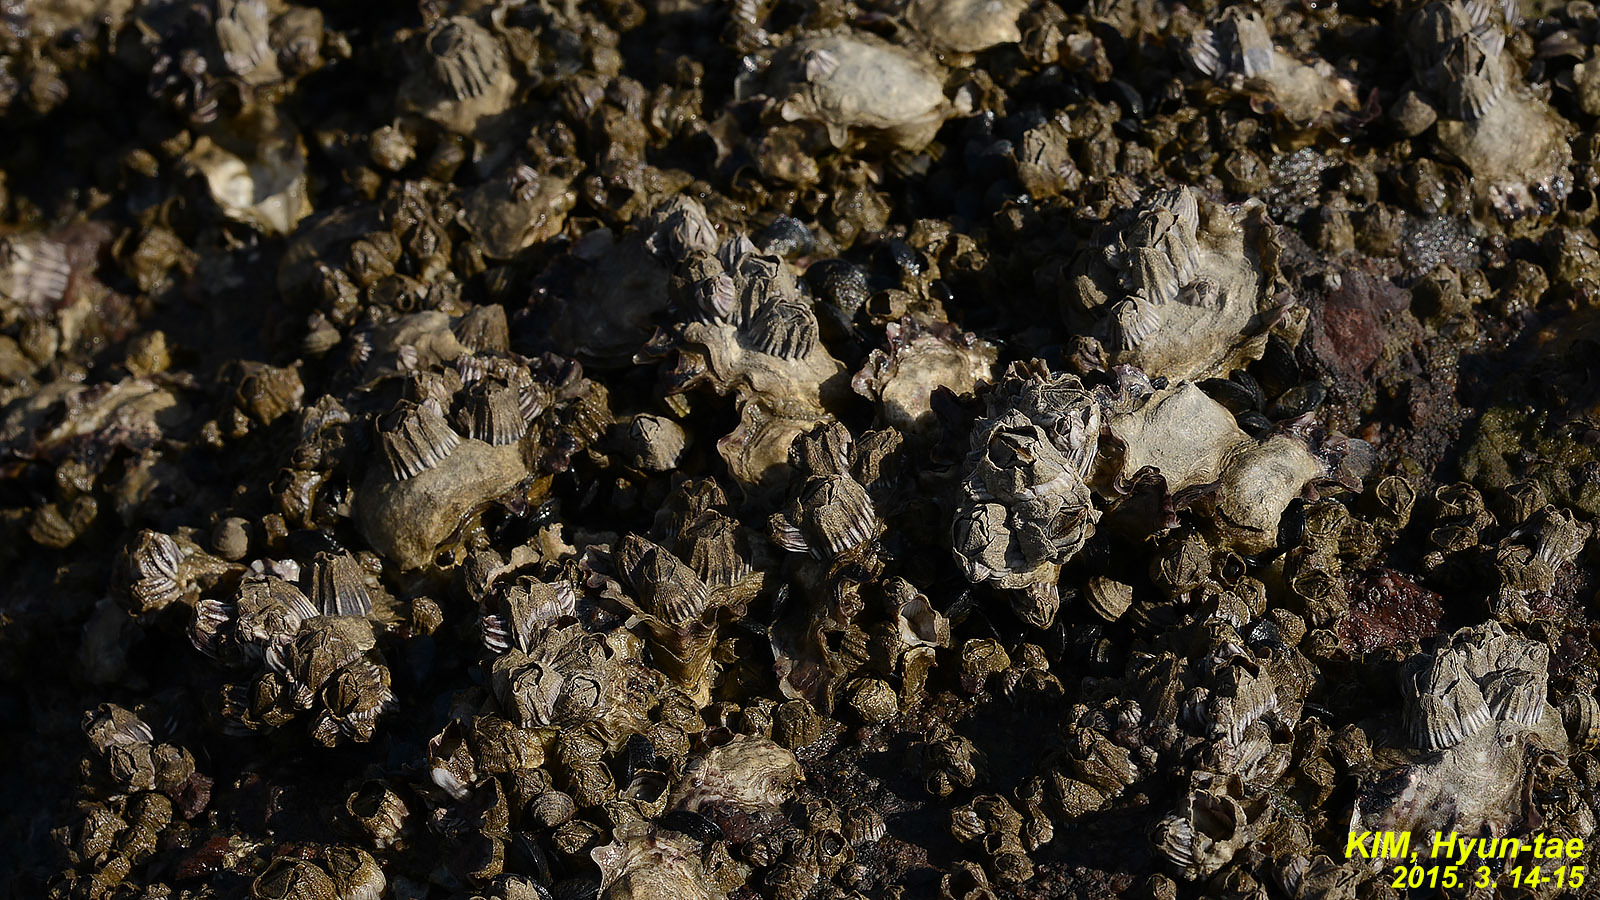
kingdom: Animalia
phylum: Arthropoda
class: Maxillopoda
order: Sessilia
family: Balanidae
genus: Fistulobalanus
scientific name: Fistulobalanus albicostatus
